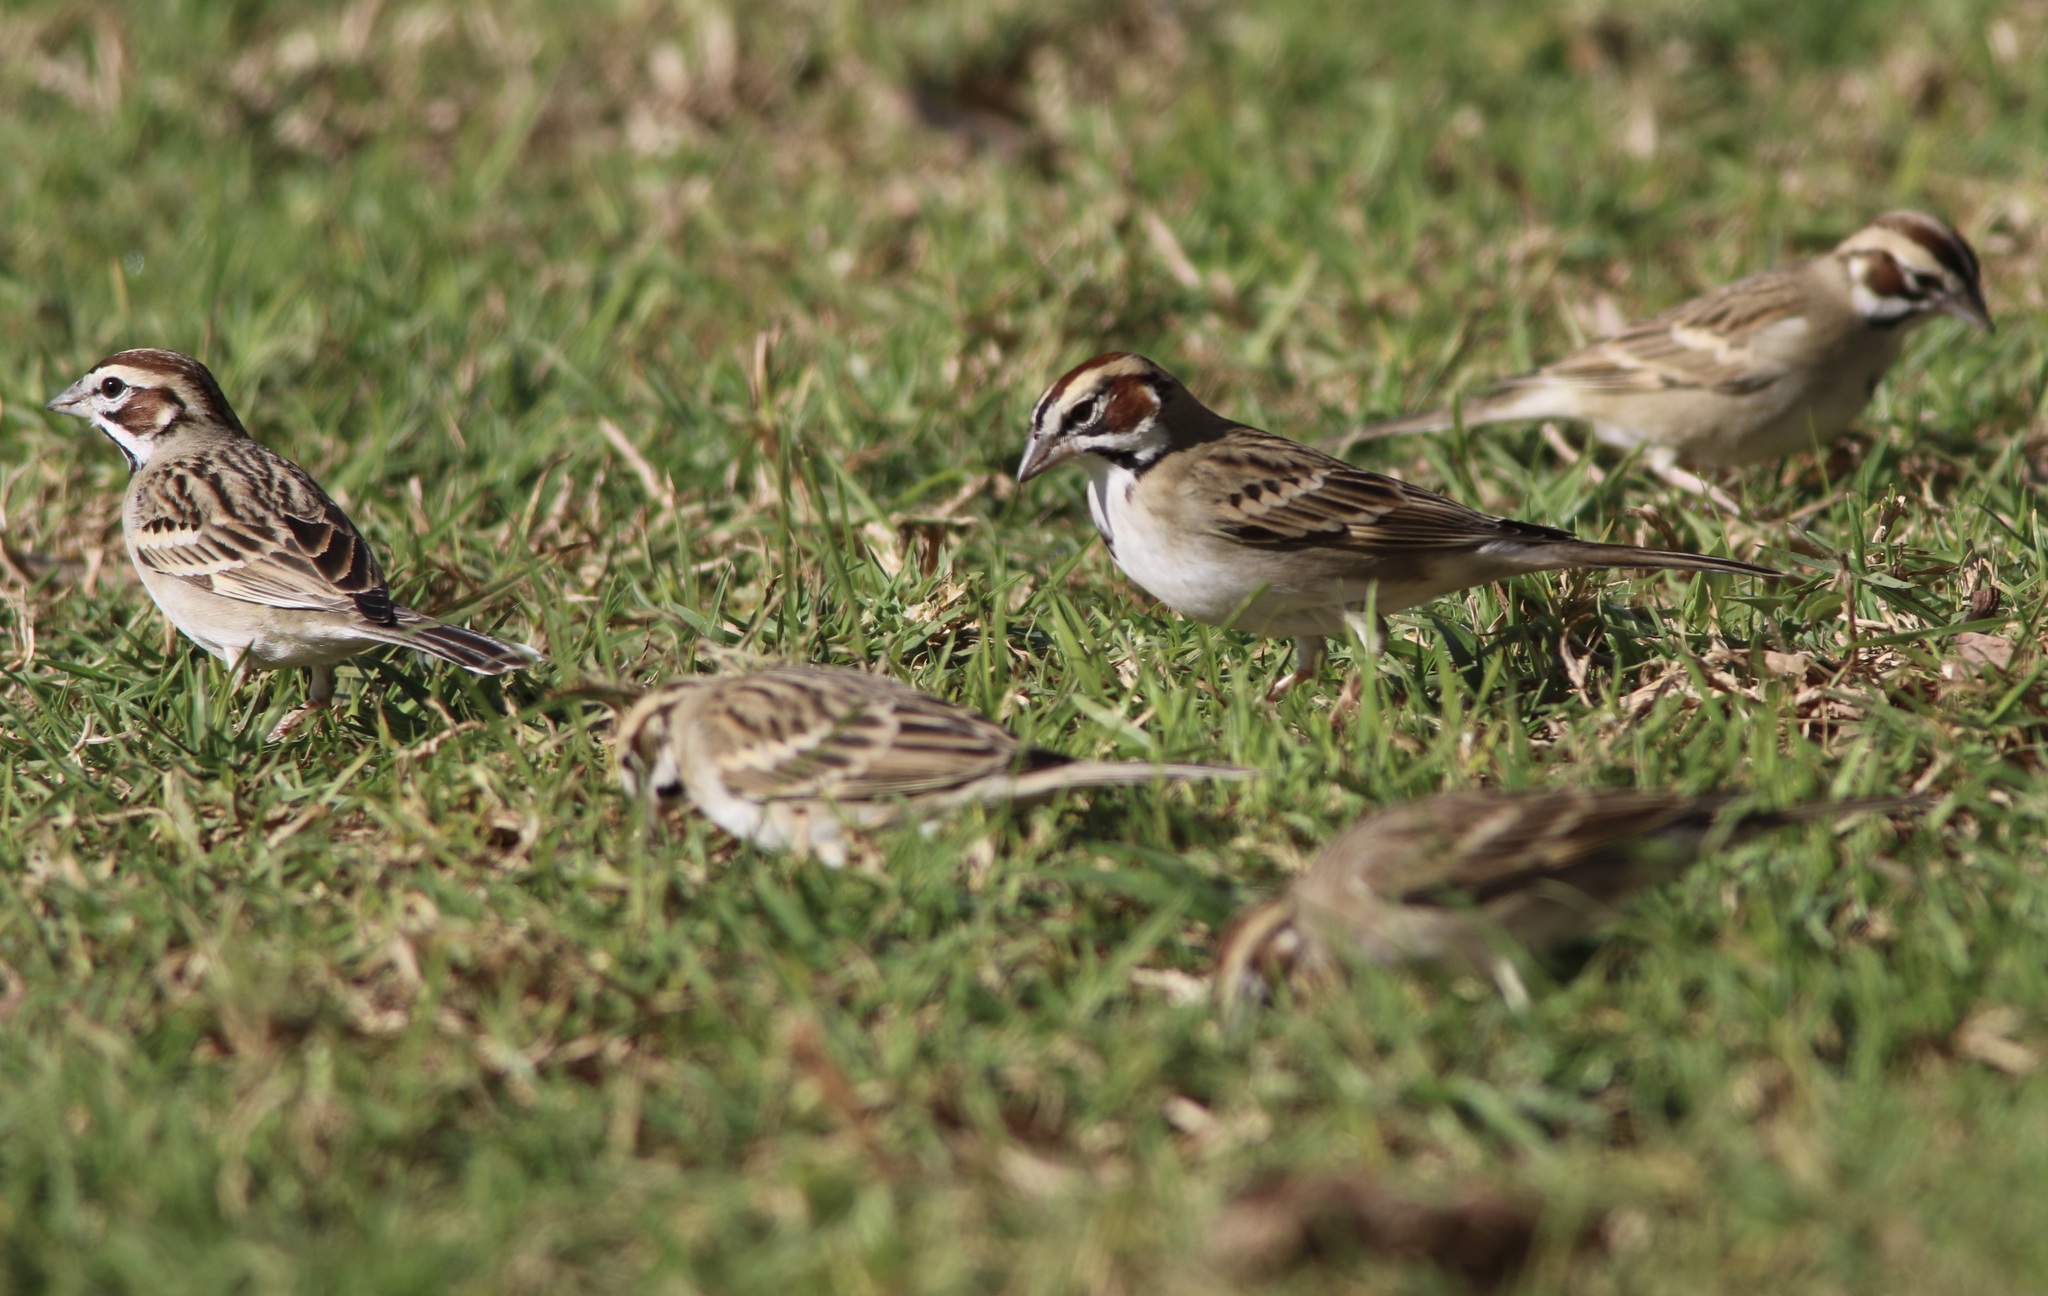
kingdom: Animalia
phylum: Chordata
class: Aves
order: Passeriformes
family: Passerellidae
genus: Chondestes
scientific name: Chondestes grammacus
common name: Lark sparrow
